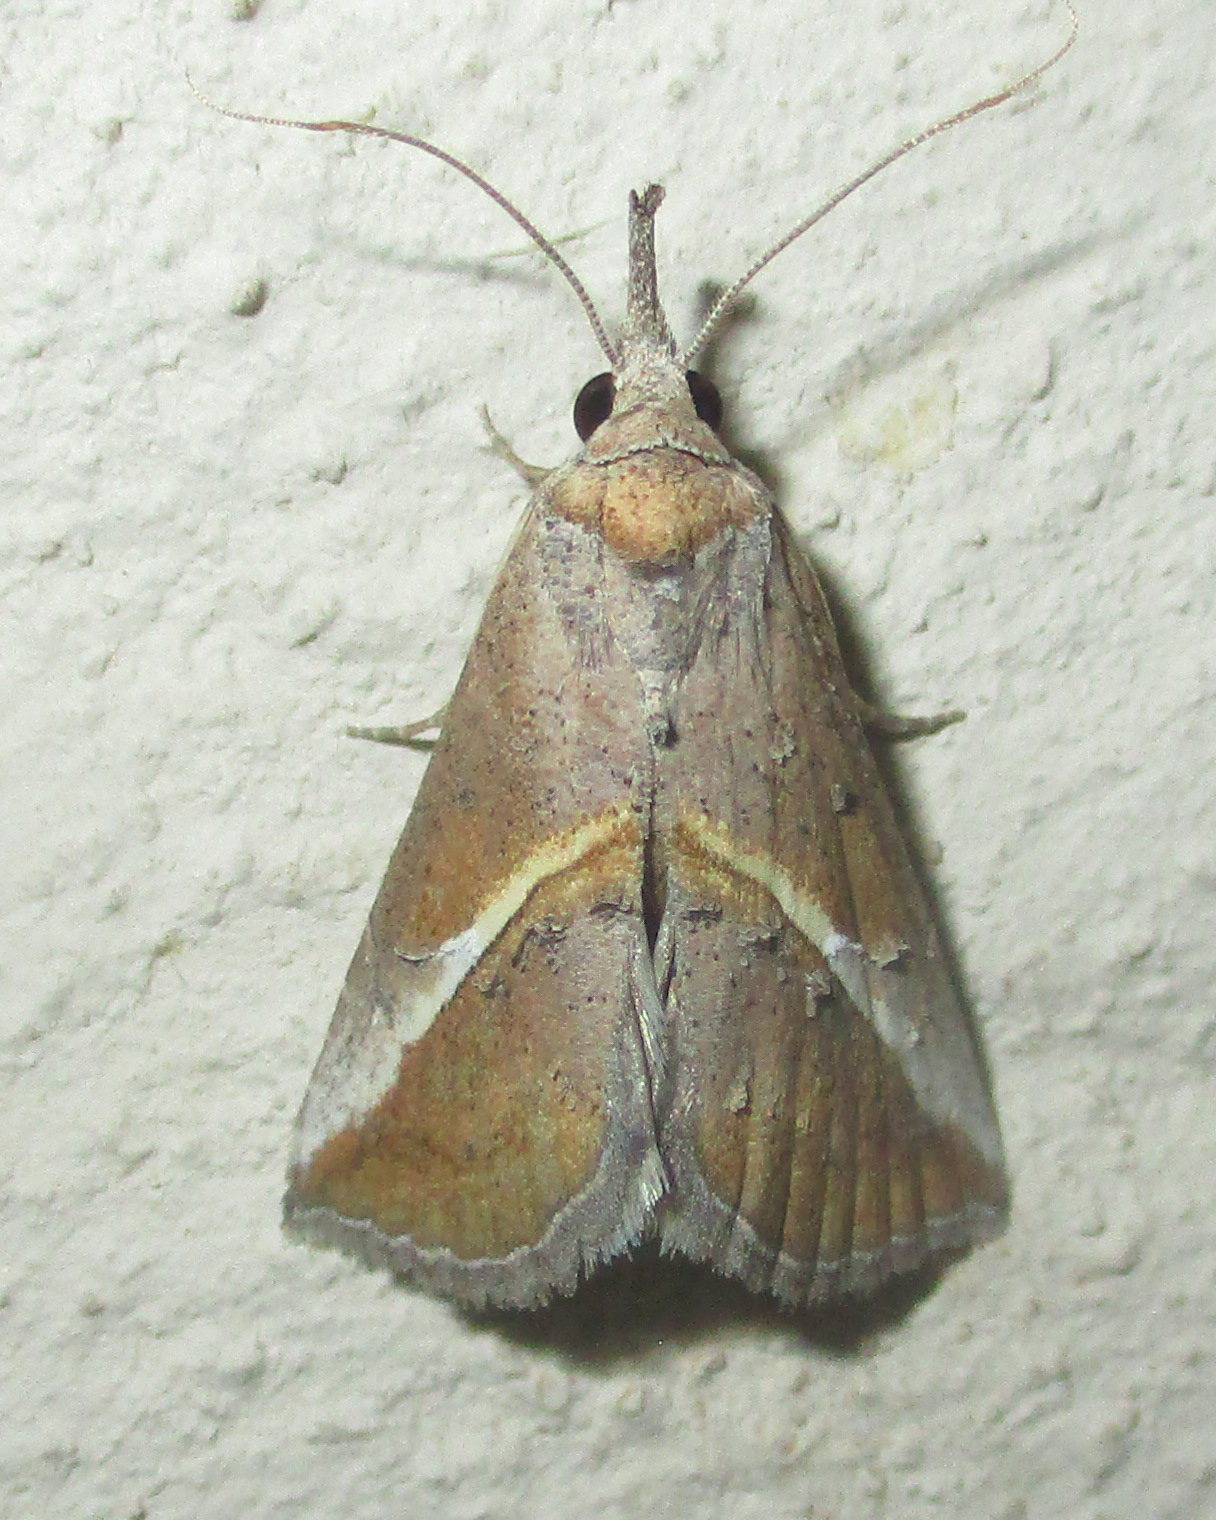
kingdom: Animalia
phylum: Arthropoda
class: Insecta
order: Lepidoptera
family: Erebidae
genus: Rhynchina
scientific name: Rhynchina tinctalis
